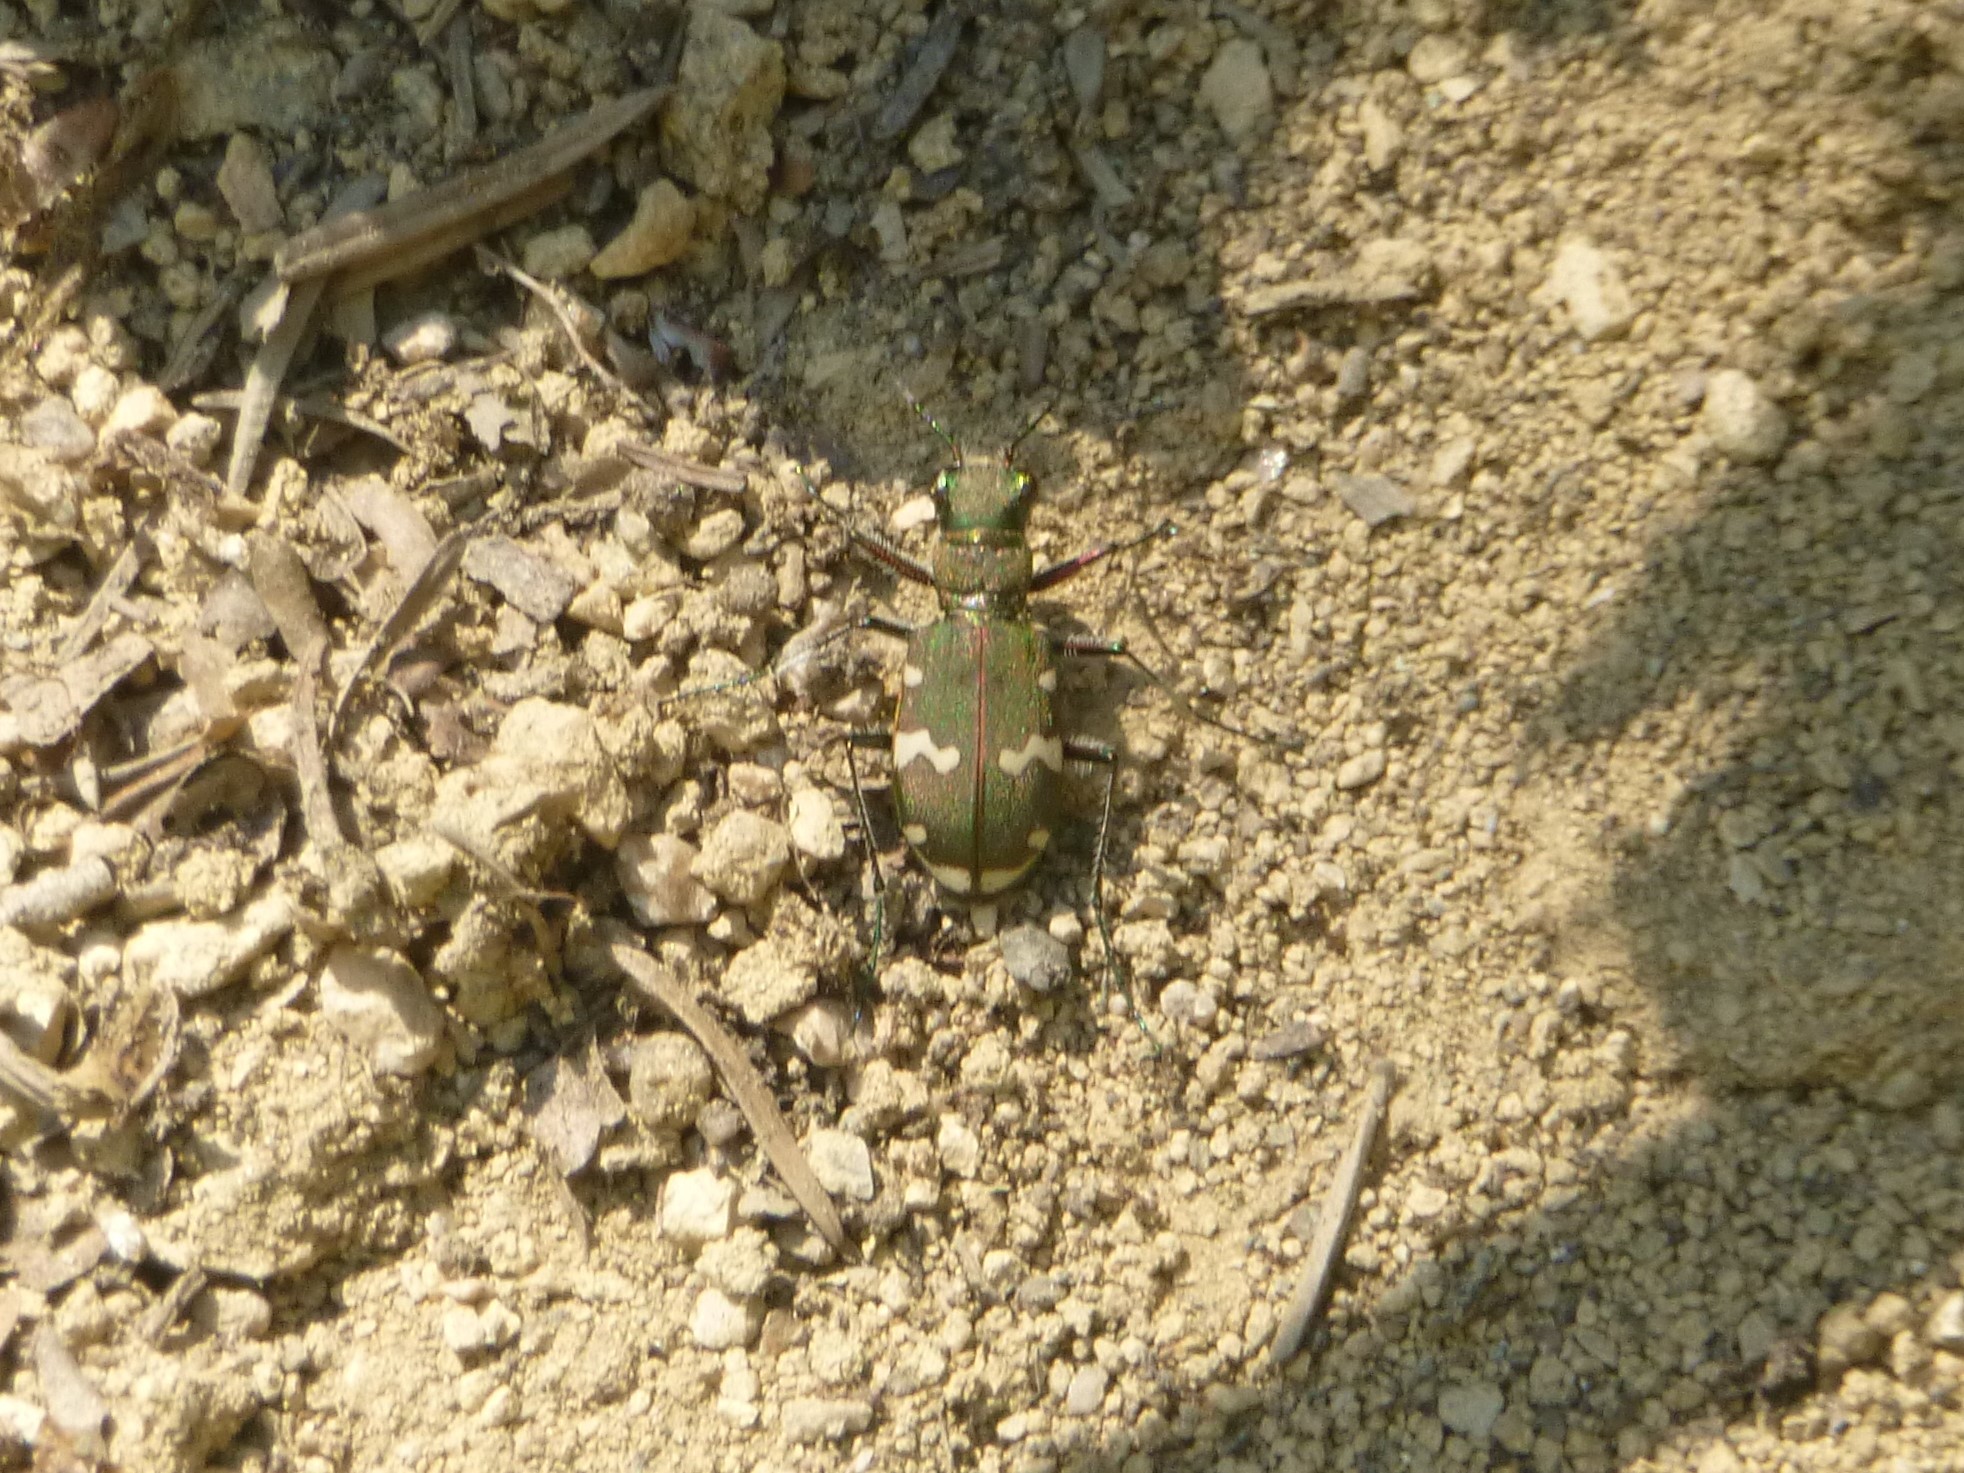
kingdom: Animalia
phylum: Arthropoda
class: Insecta
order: Coleoptera
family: Carabidae
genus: Cicindela
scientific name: Cicindela sylvicola
